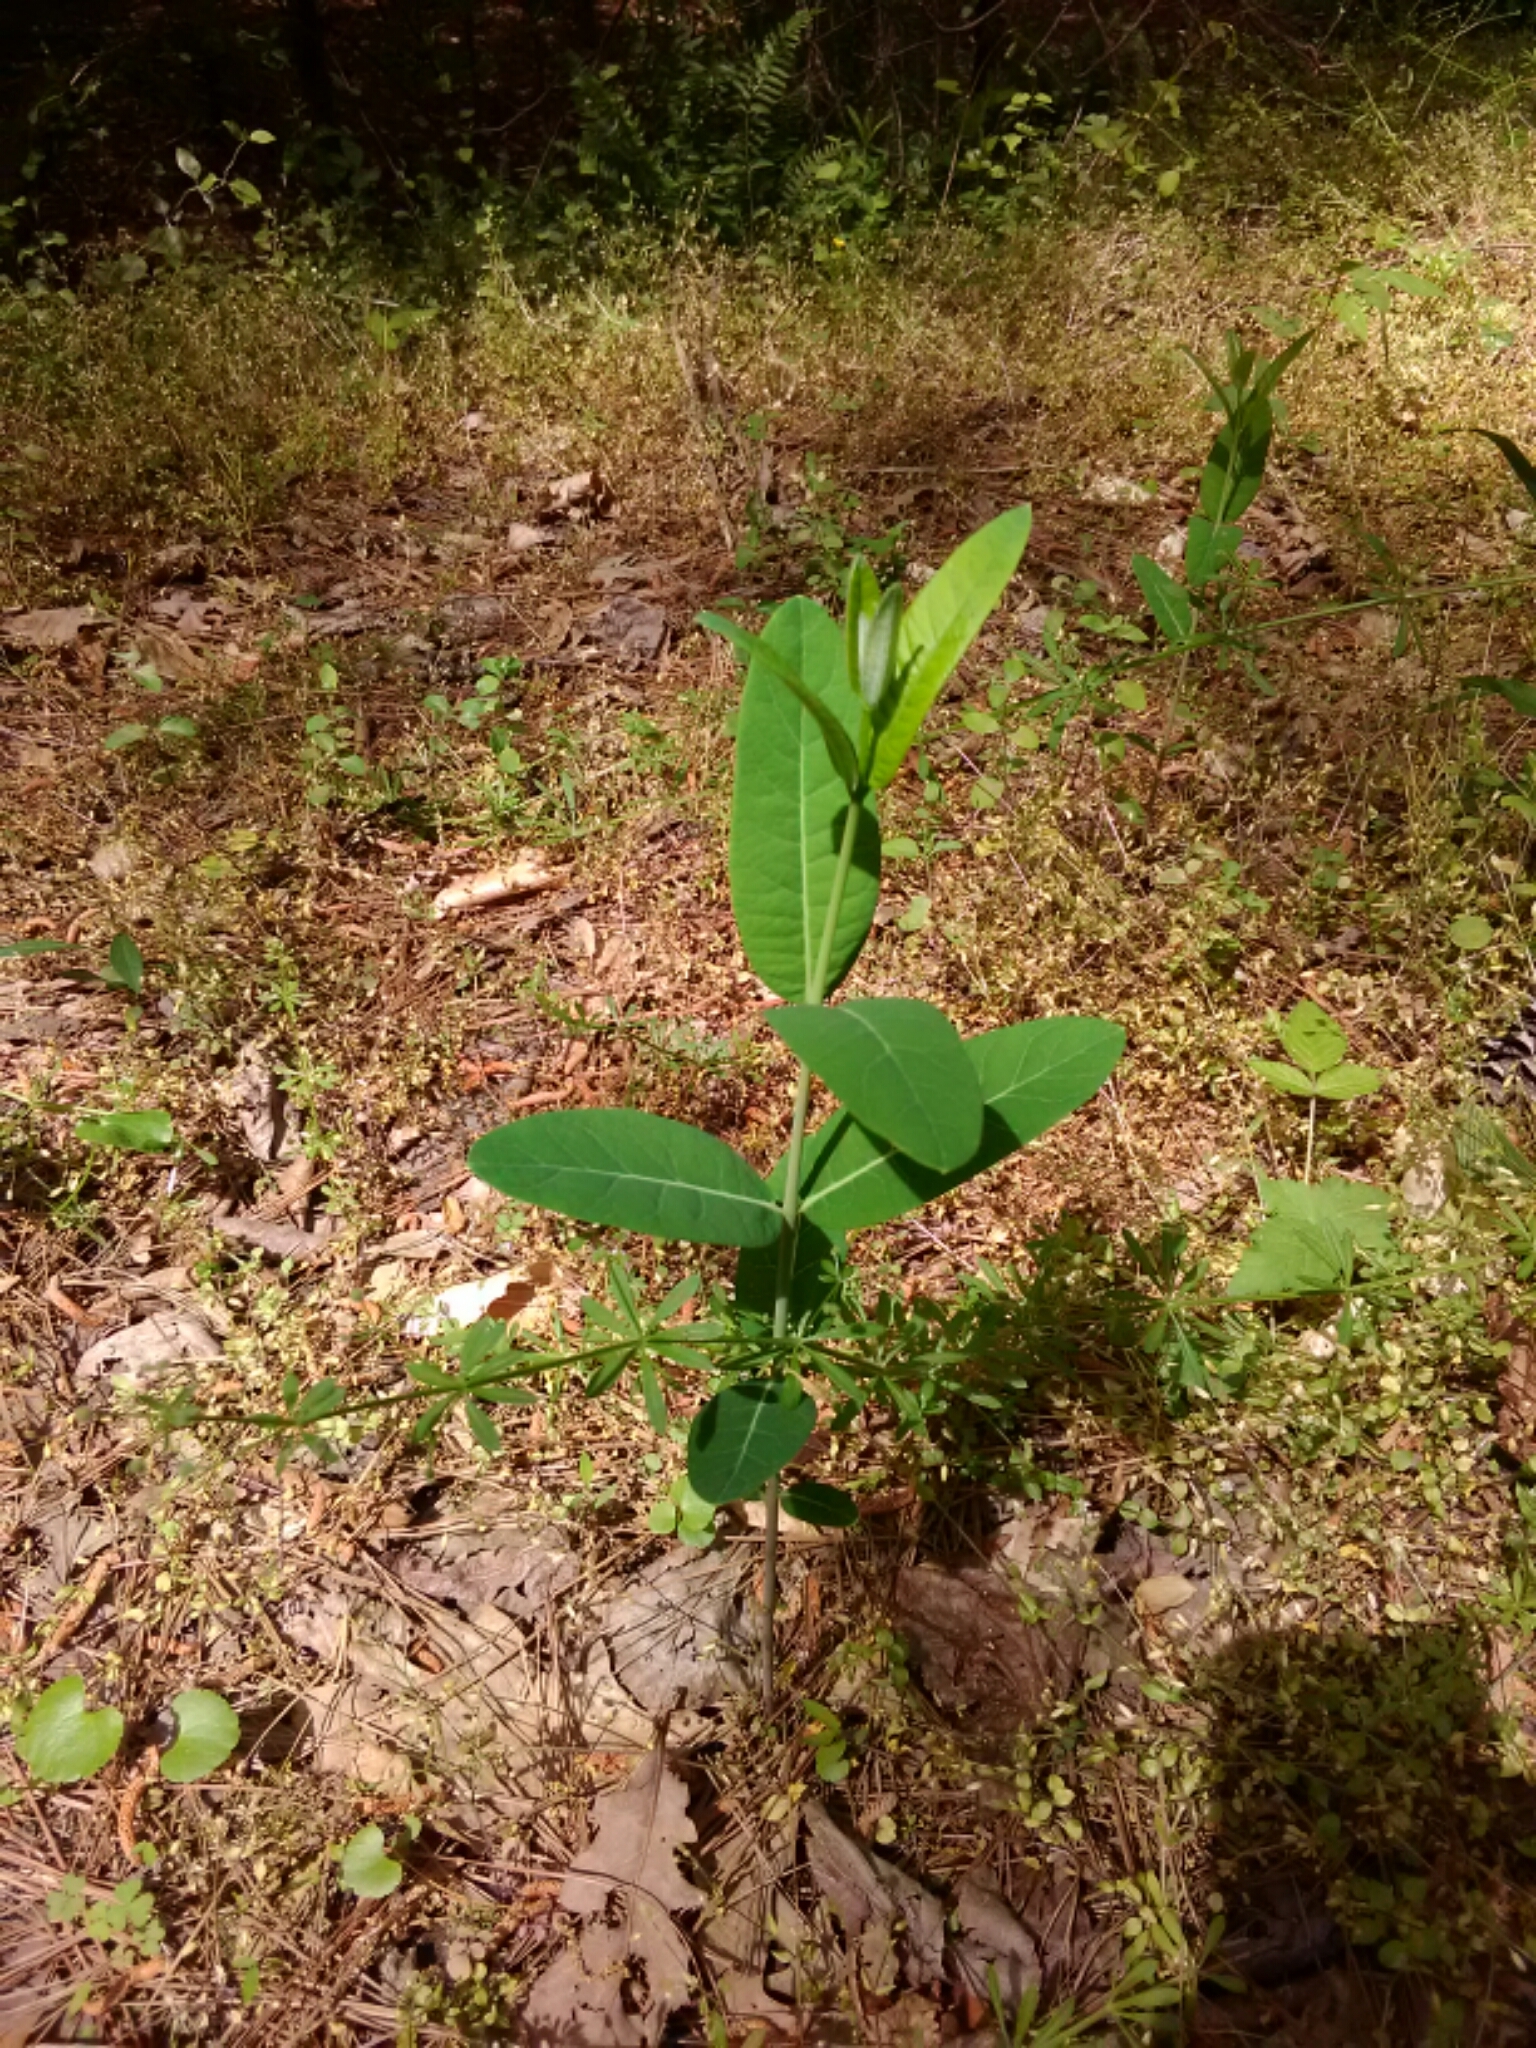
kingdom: Plantae
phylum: Tracheophyta
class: Magnoliopsida
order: Gentianales
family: Apocynaceae
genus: Apocynum
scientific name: Apocynum cannabinum
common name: Hemp dogbane
